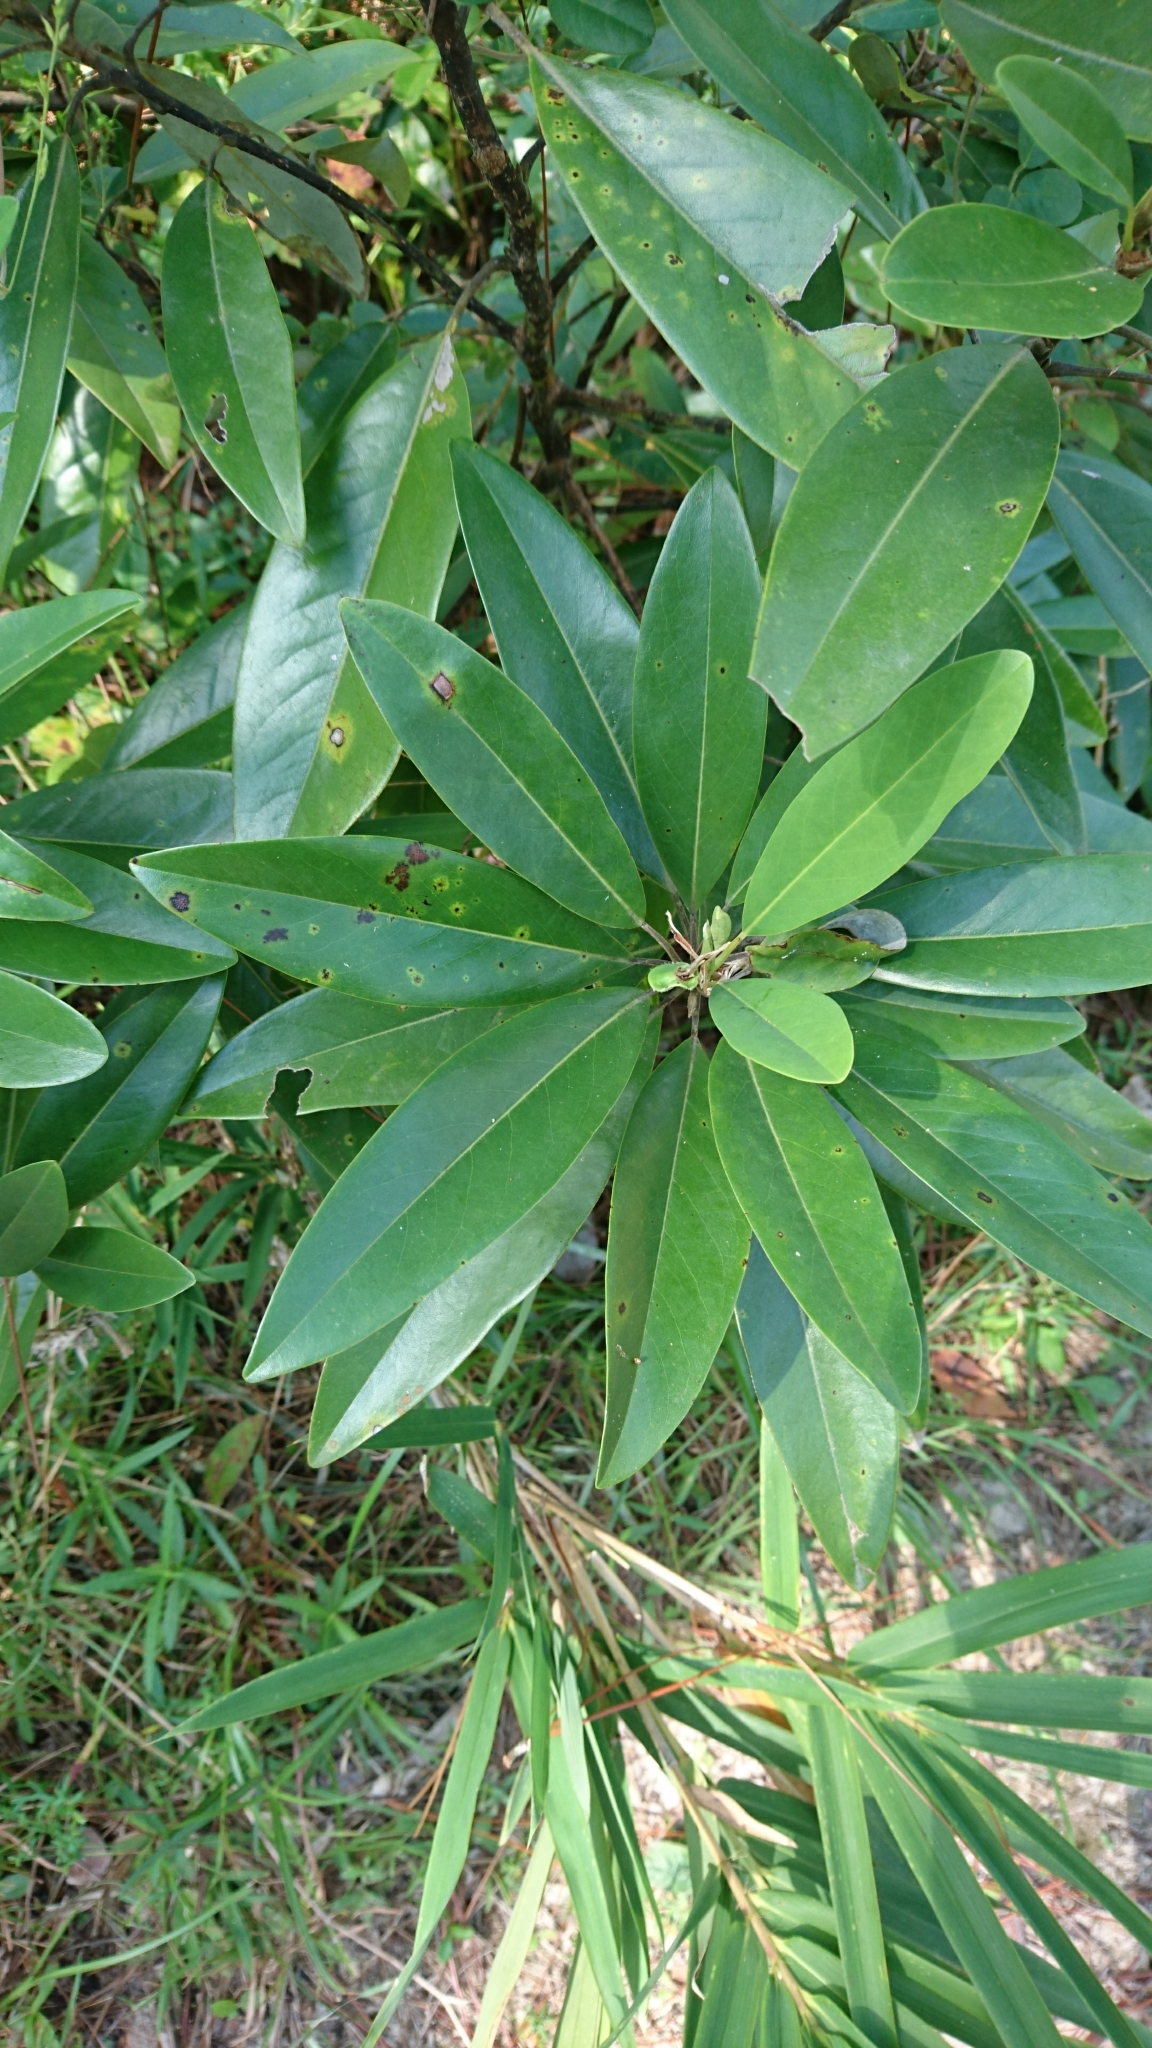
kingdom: Plantae
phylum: Tracheophyta
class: Magnoliopsida
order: Magnoliales
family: Magnoliaceae
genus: Magnolia
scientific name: Magnolia virginiana
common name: Swamp bay
